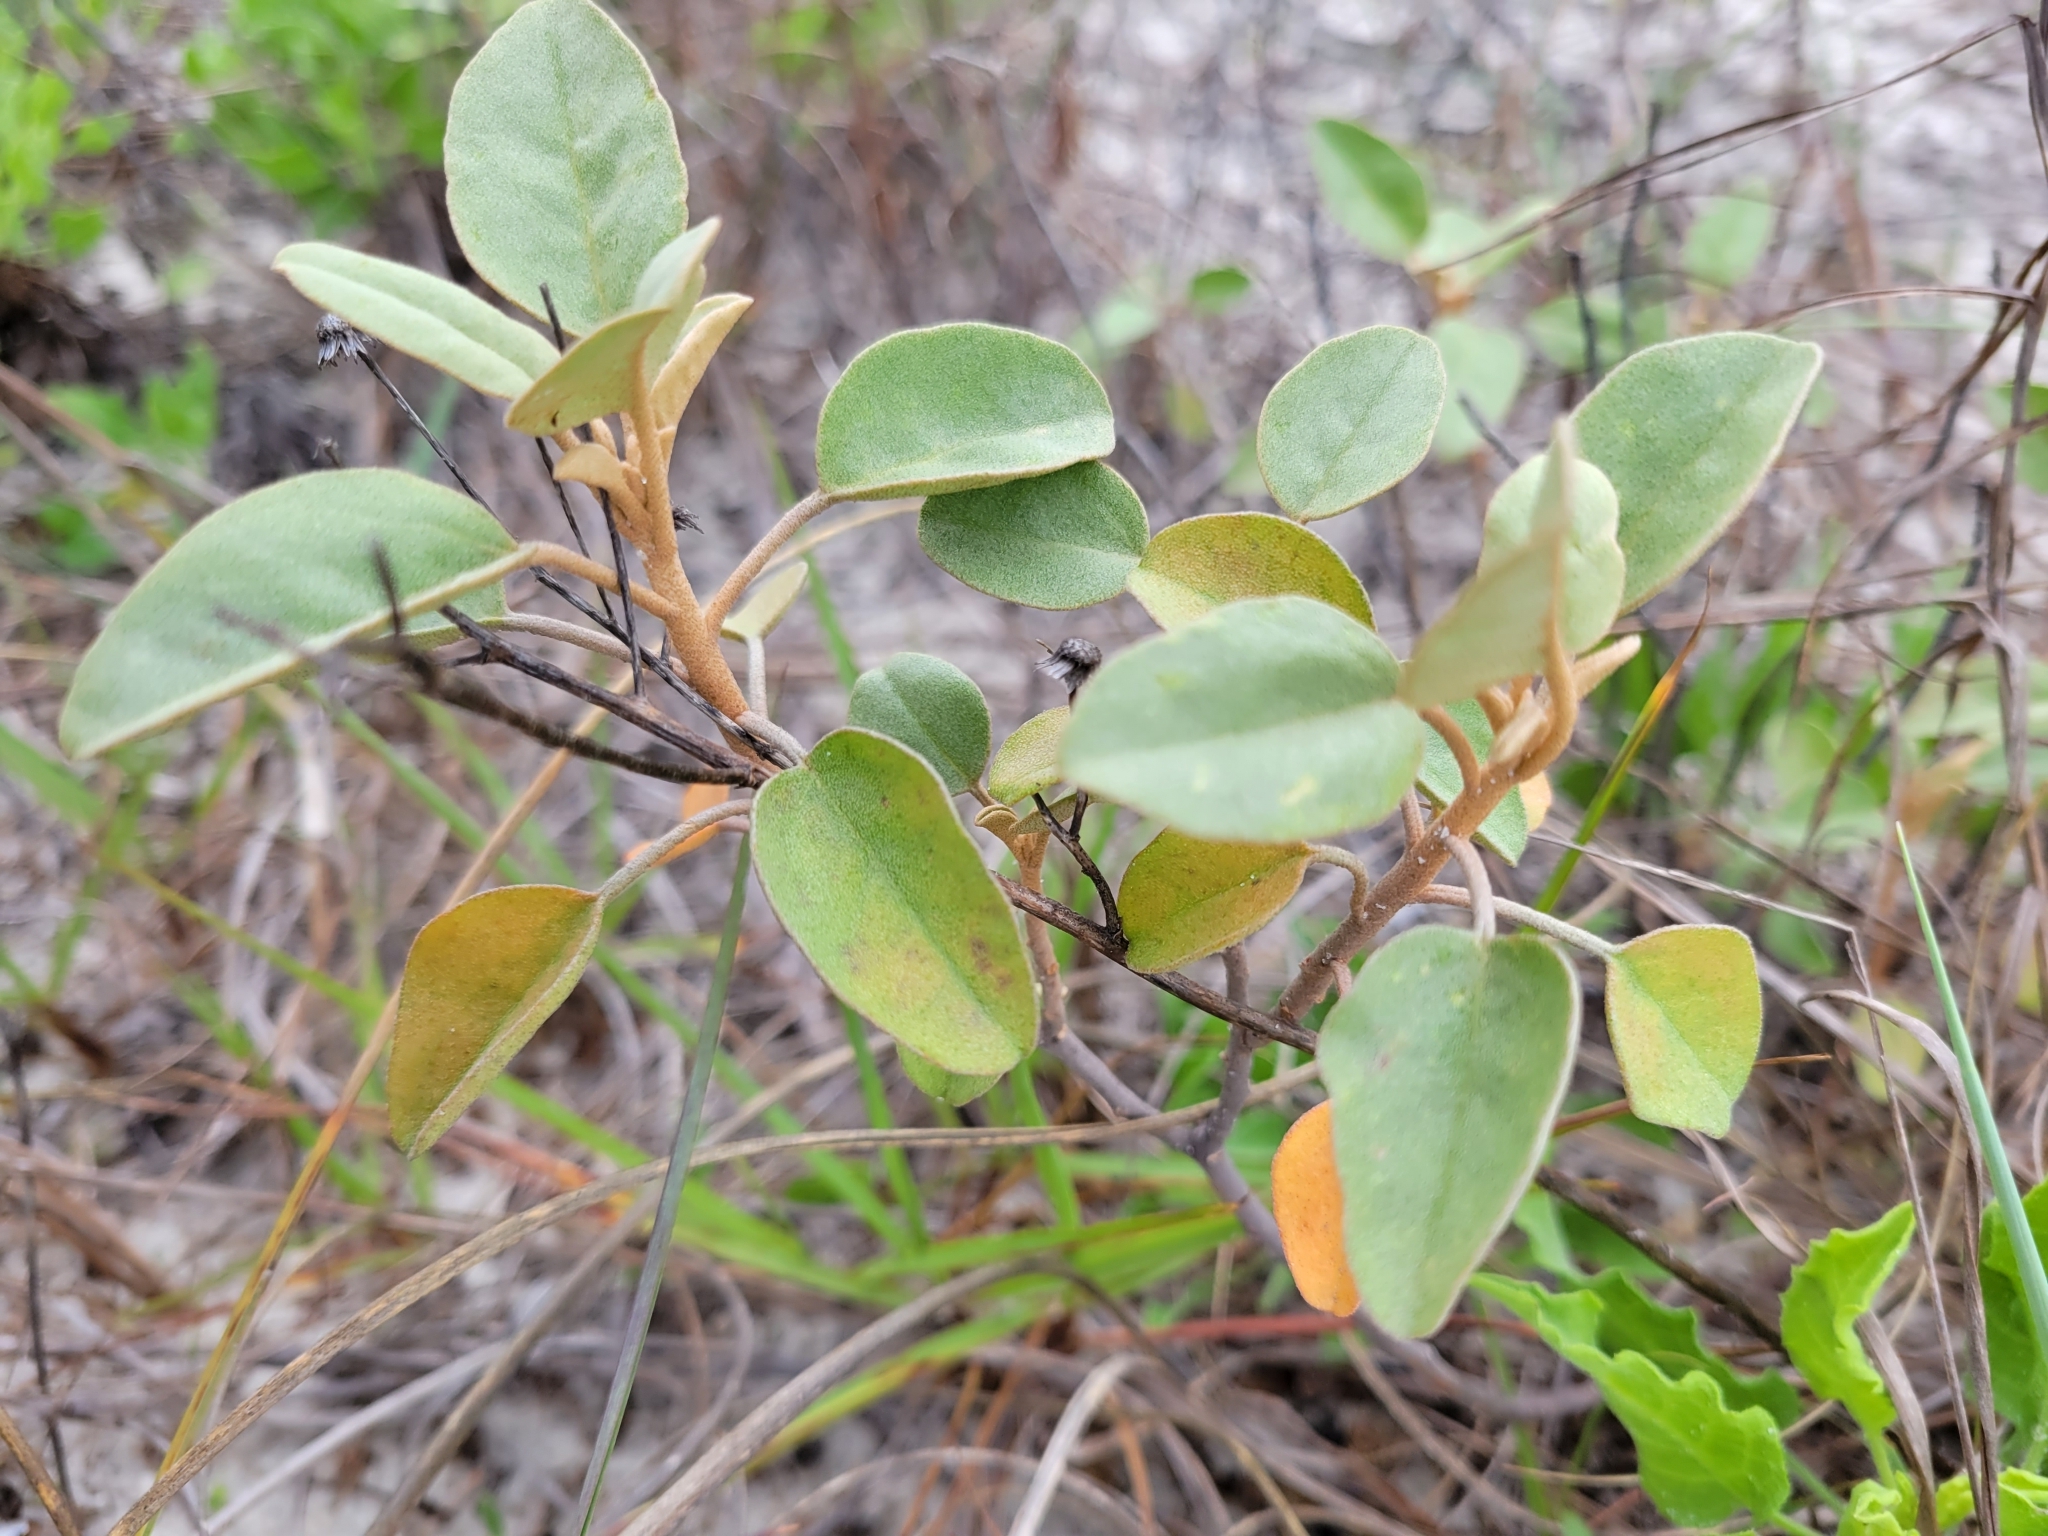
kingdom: Plantae
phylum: Tracheophyta
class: Magnoliopsida
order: Malpighiales
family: Euphorbiaceae
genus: Croton
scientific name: Croton punctatus
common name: Beach-tea
